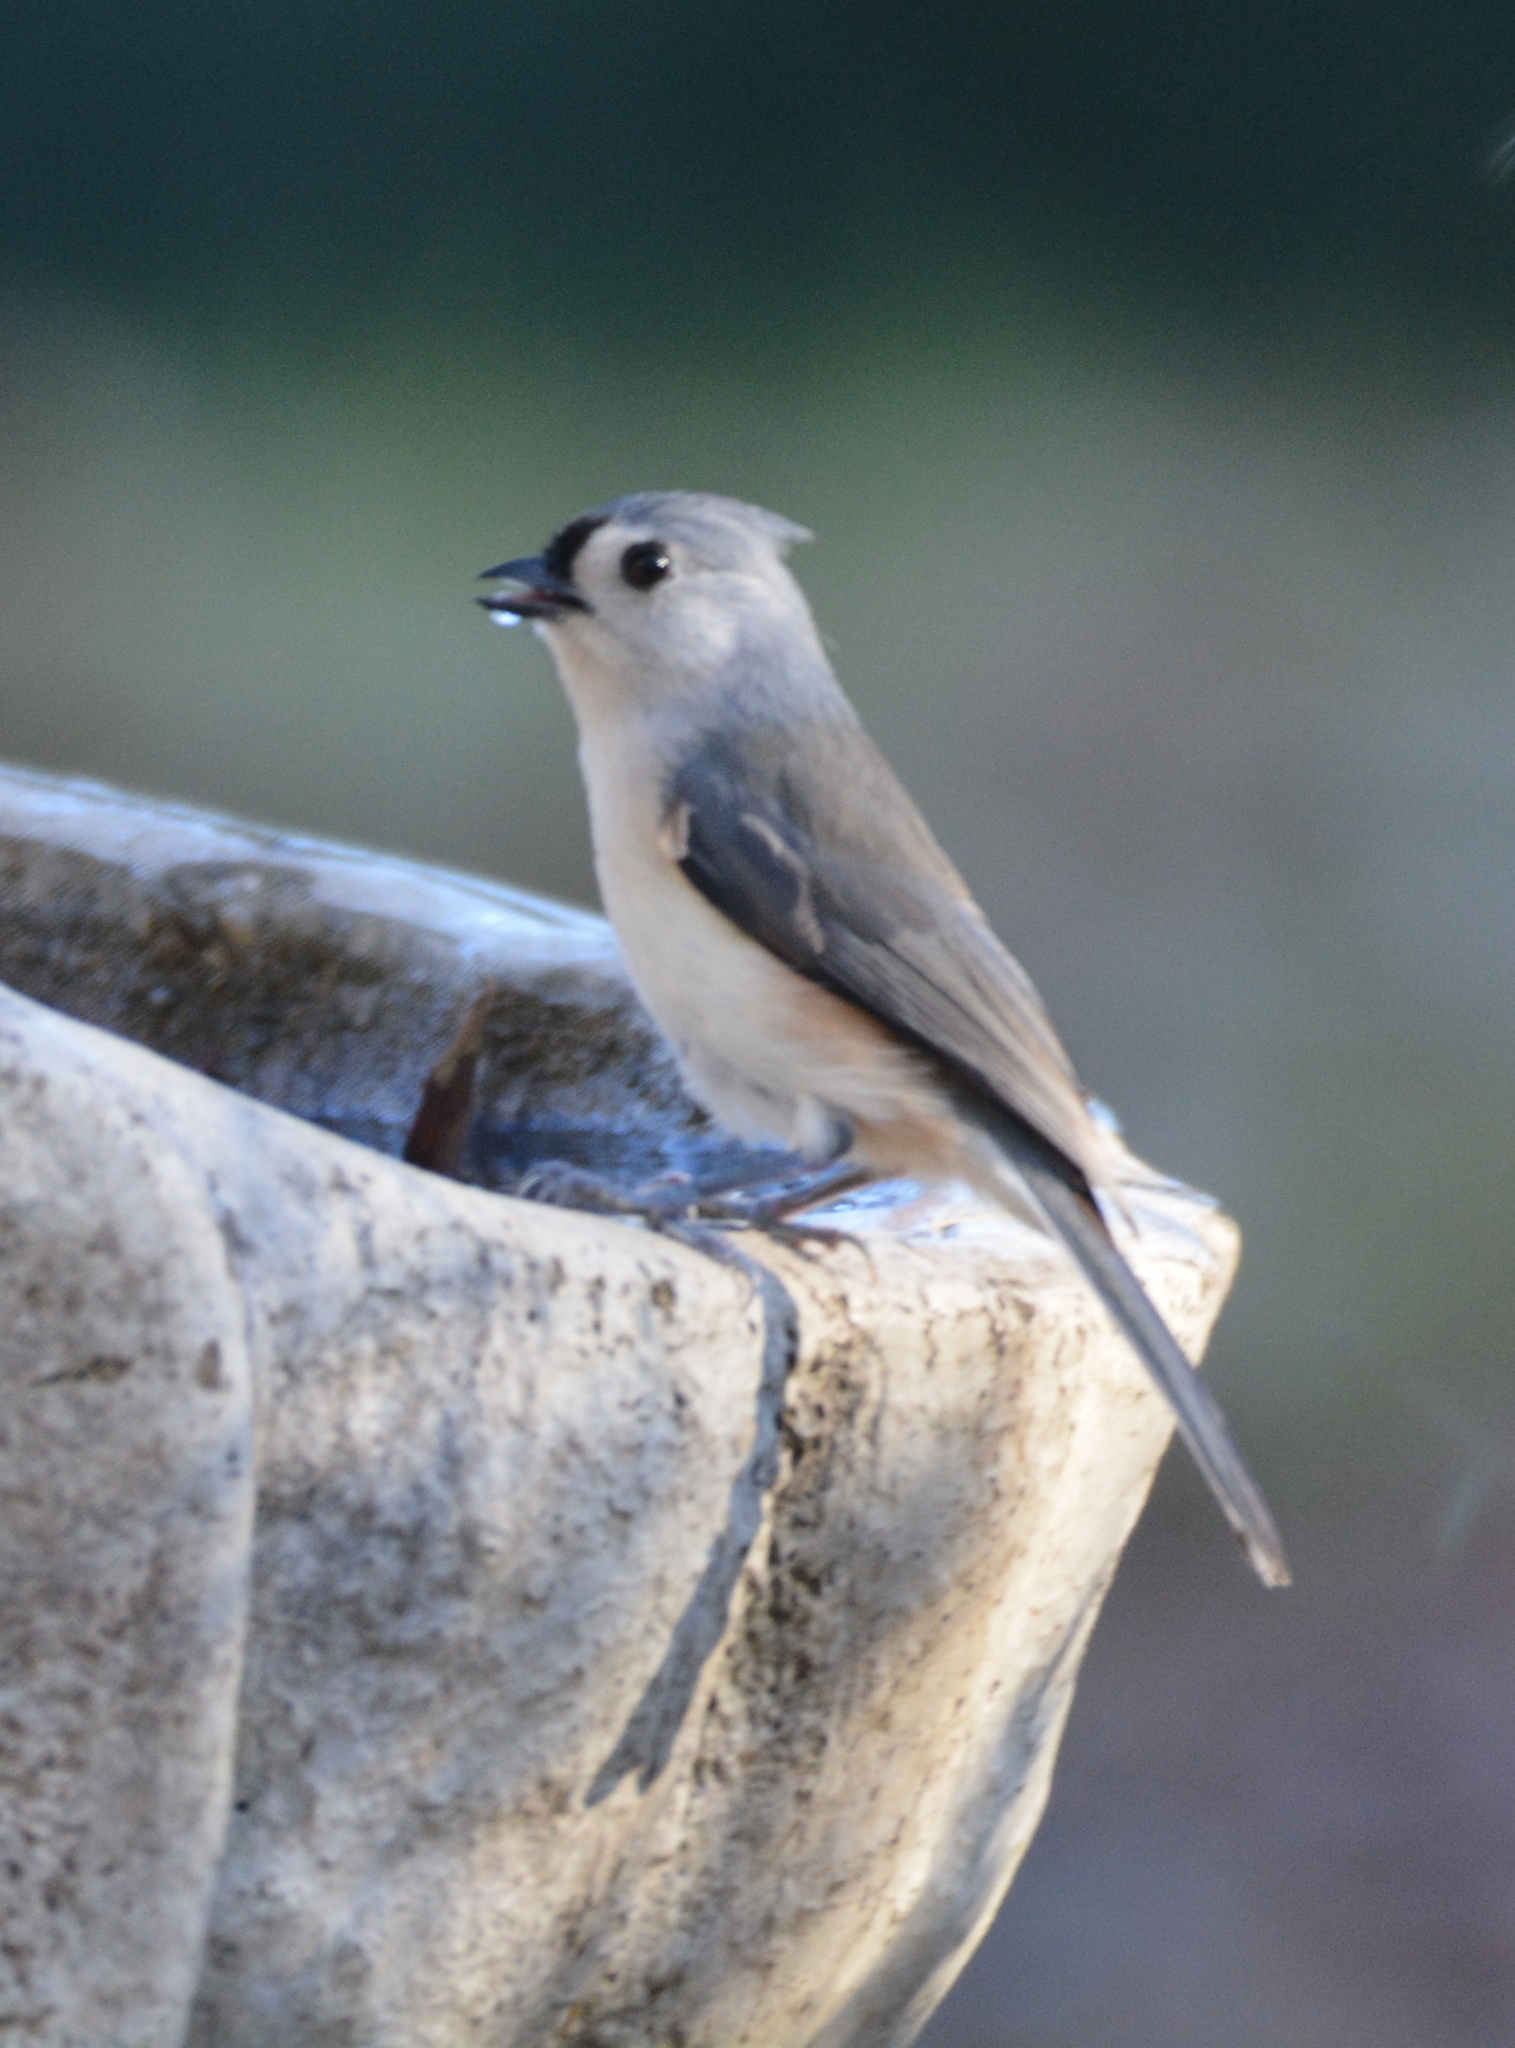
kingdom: Animalia
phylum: Chordata
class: Aves
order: Passeriformes
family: Paridae
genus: Baeolophus
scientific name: Baeolophus bicolor
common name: Tufted titmouse
